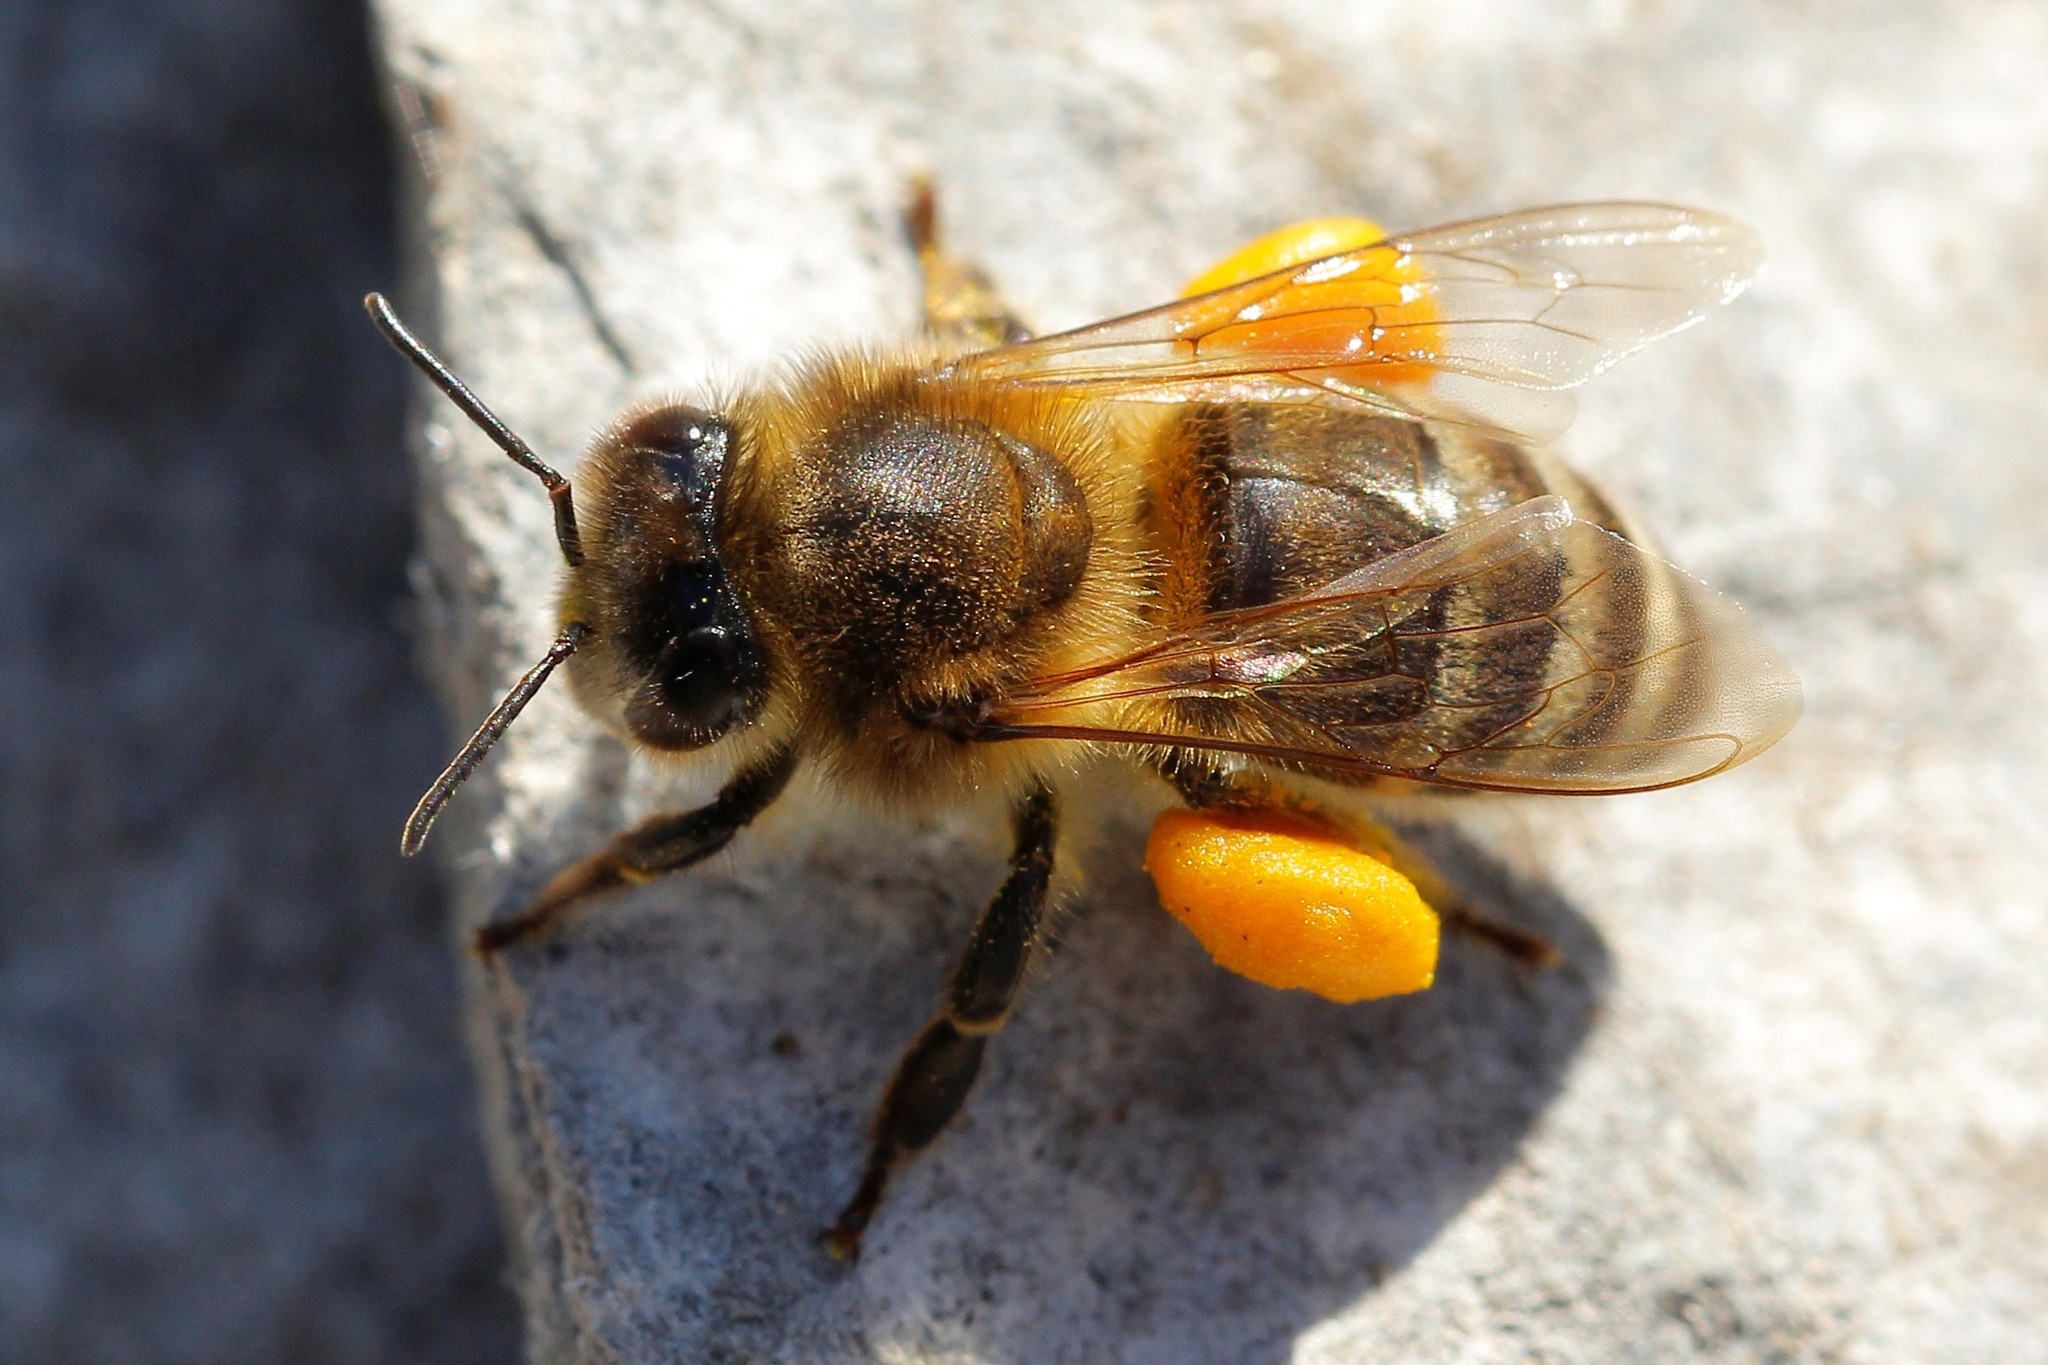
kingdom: Animalia
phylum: Arthropoda
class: Insecta
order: Hymenoptera
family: Apidae
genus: Apis
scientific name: Apis mellifera
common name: Honey bee
